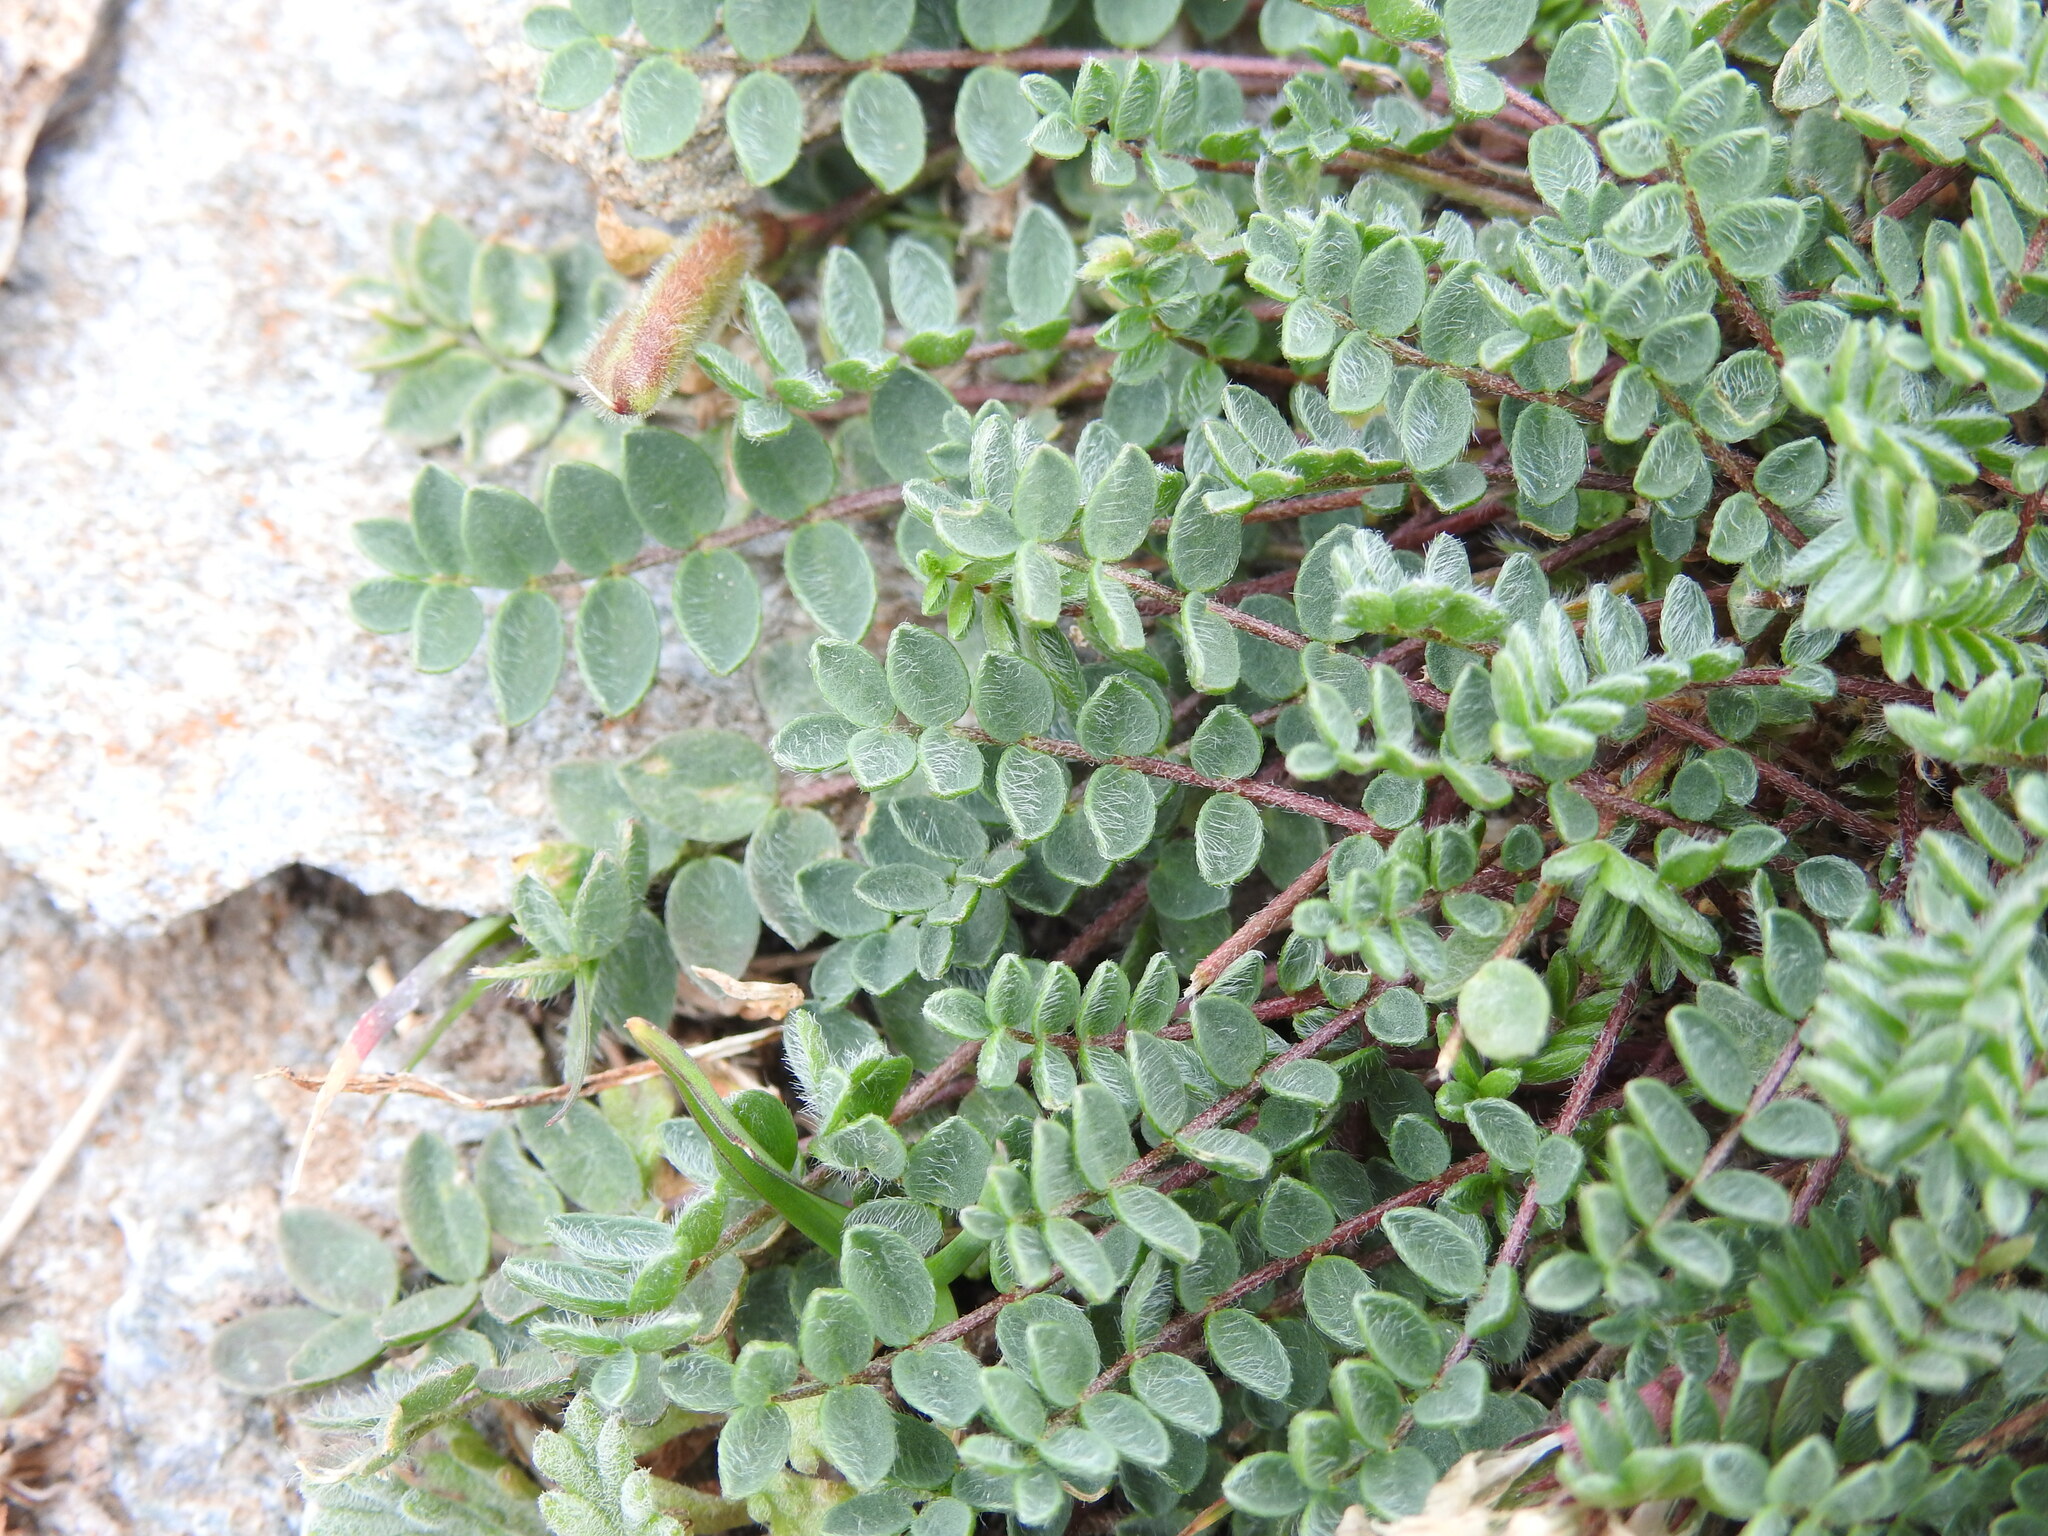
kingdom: Plantae
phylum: Tracheophyta
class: Magnoliopsida
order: Fabales
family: Fabaceae
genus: Oxytropis
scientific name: Oxytropis helvetica
